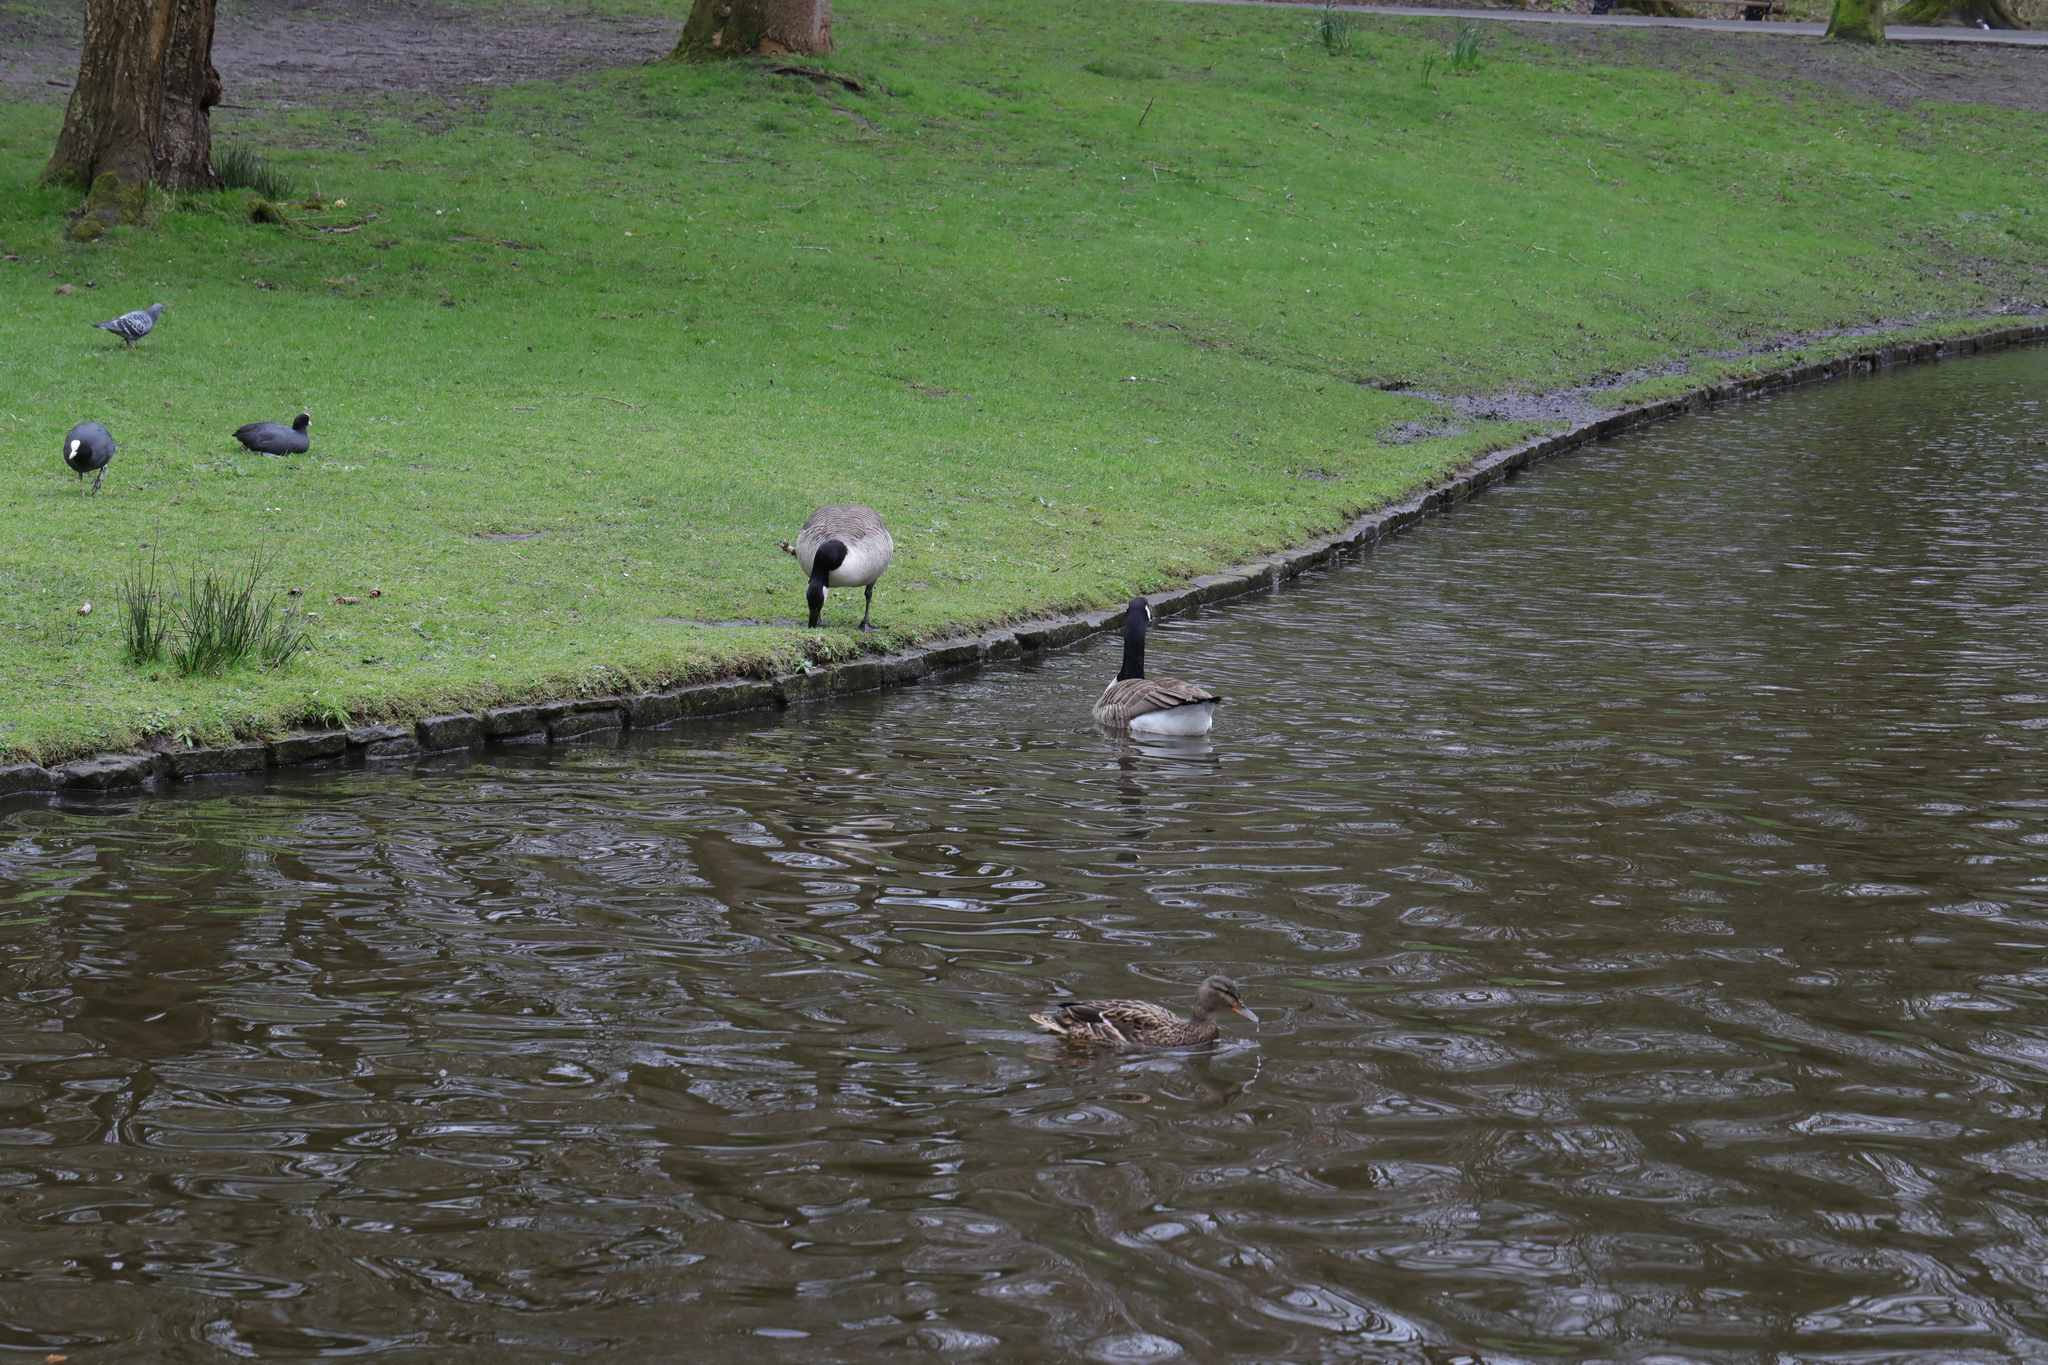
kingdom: Animalia
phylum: Chordata
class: Aves
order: Anseriformes
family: Anatidae
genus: Branta
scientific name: Branta canadensis
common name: Canada goose
